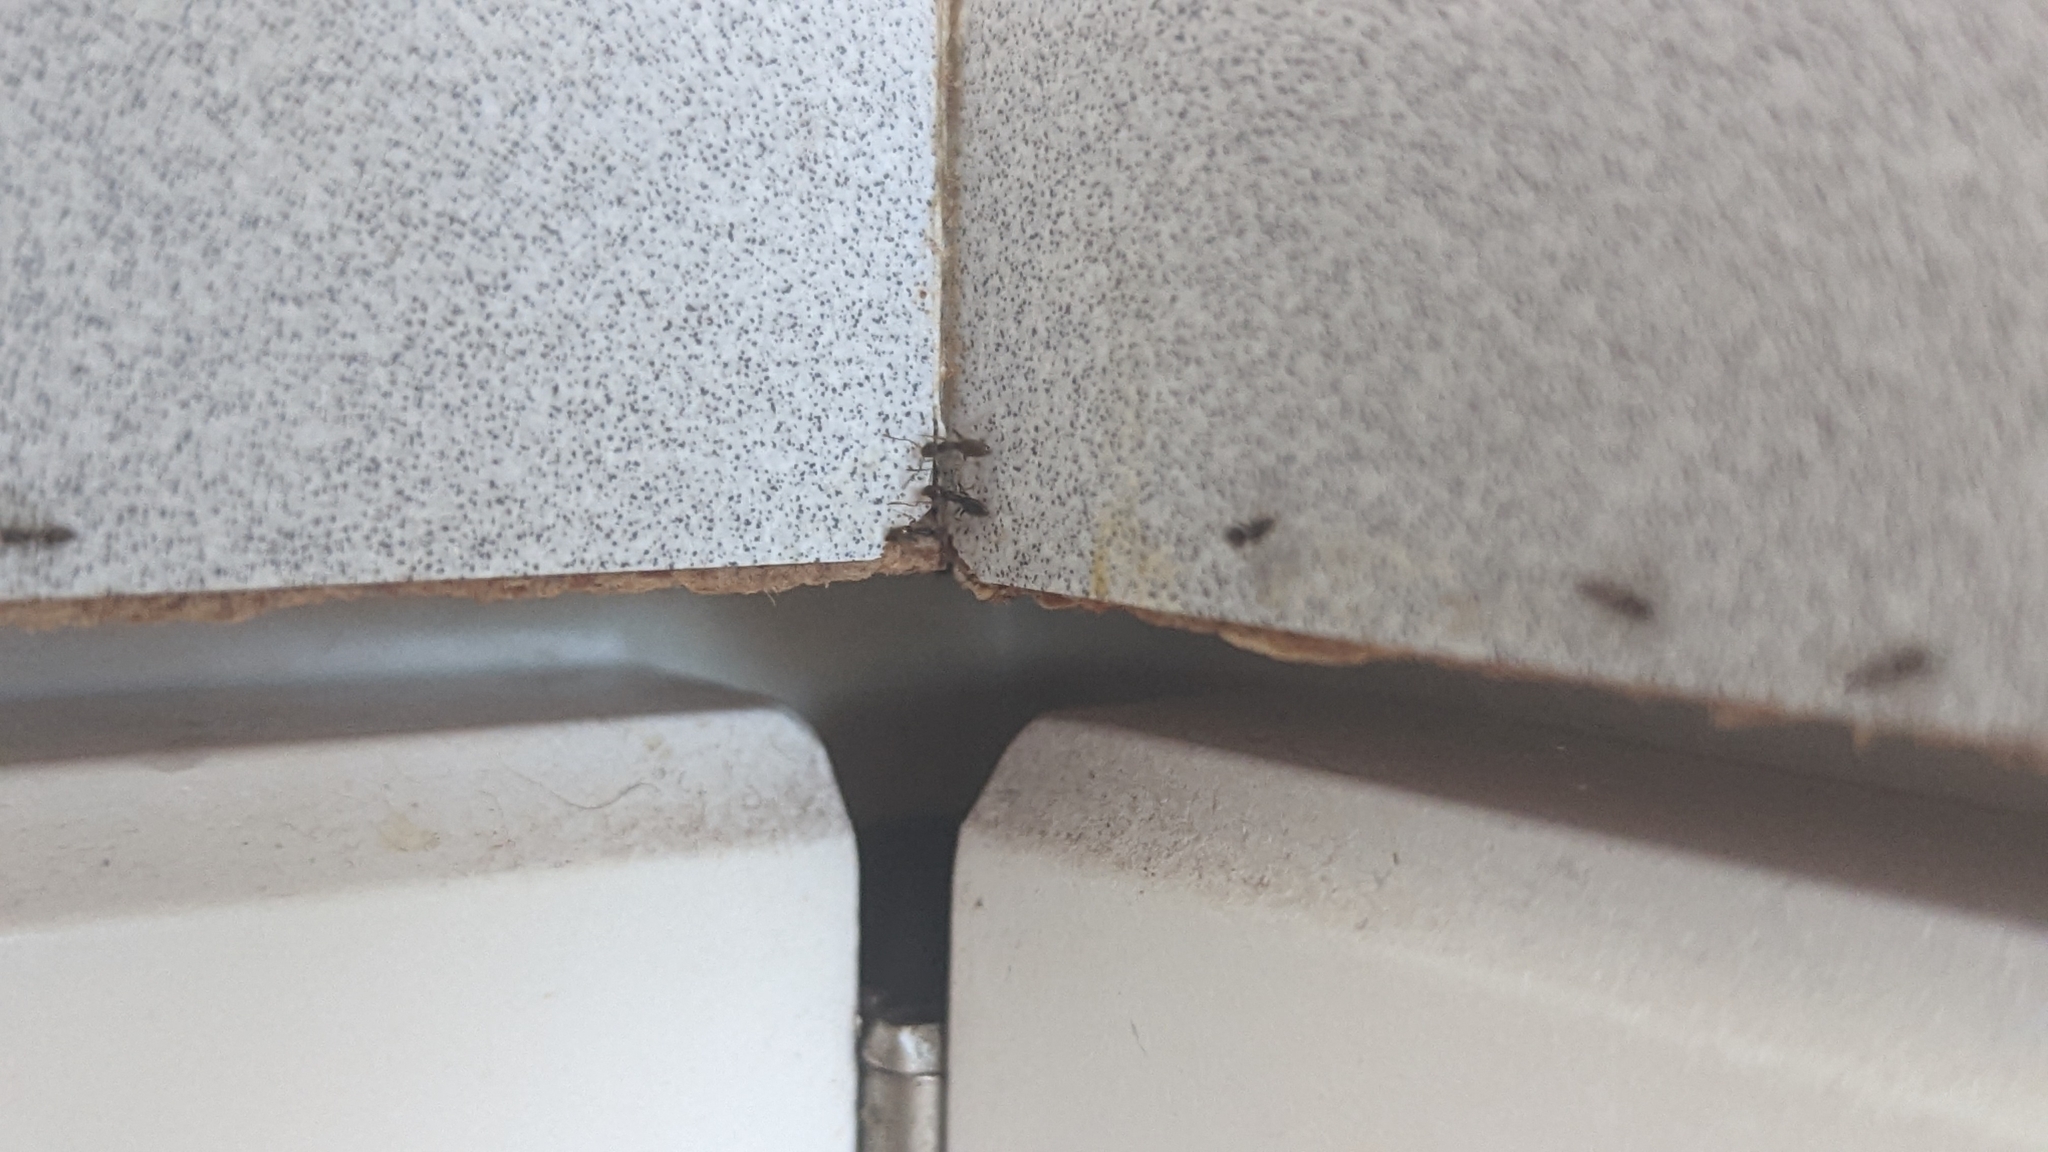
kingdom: Animalia
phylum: Arthropoda
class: Insecta
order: Hymenoptera
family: Formicidae
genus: Tapinoma
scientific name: Tapinoma sessile
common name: Odorous house ant
